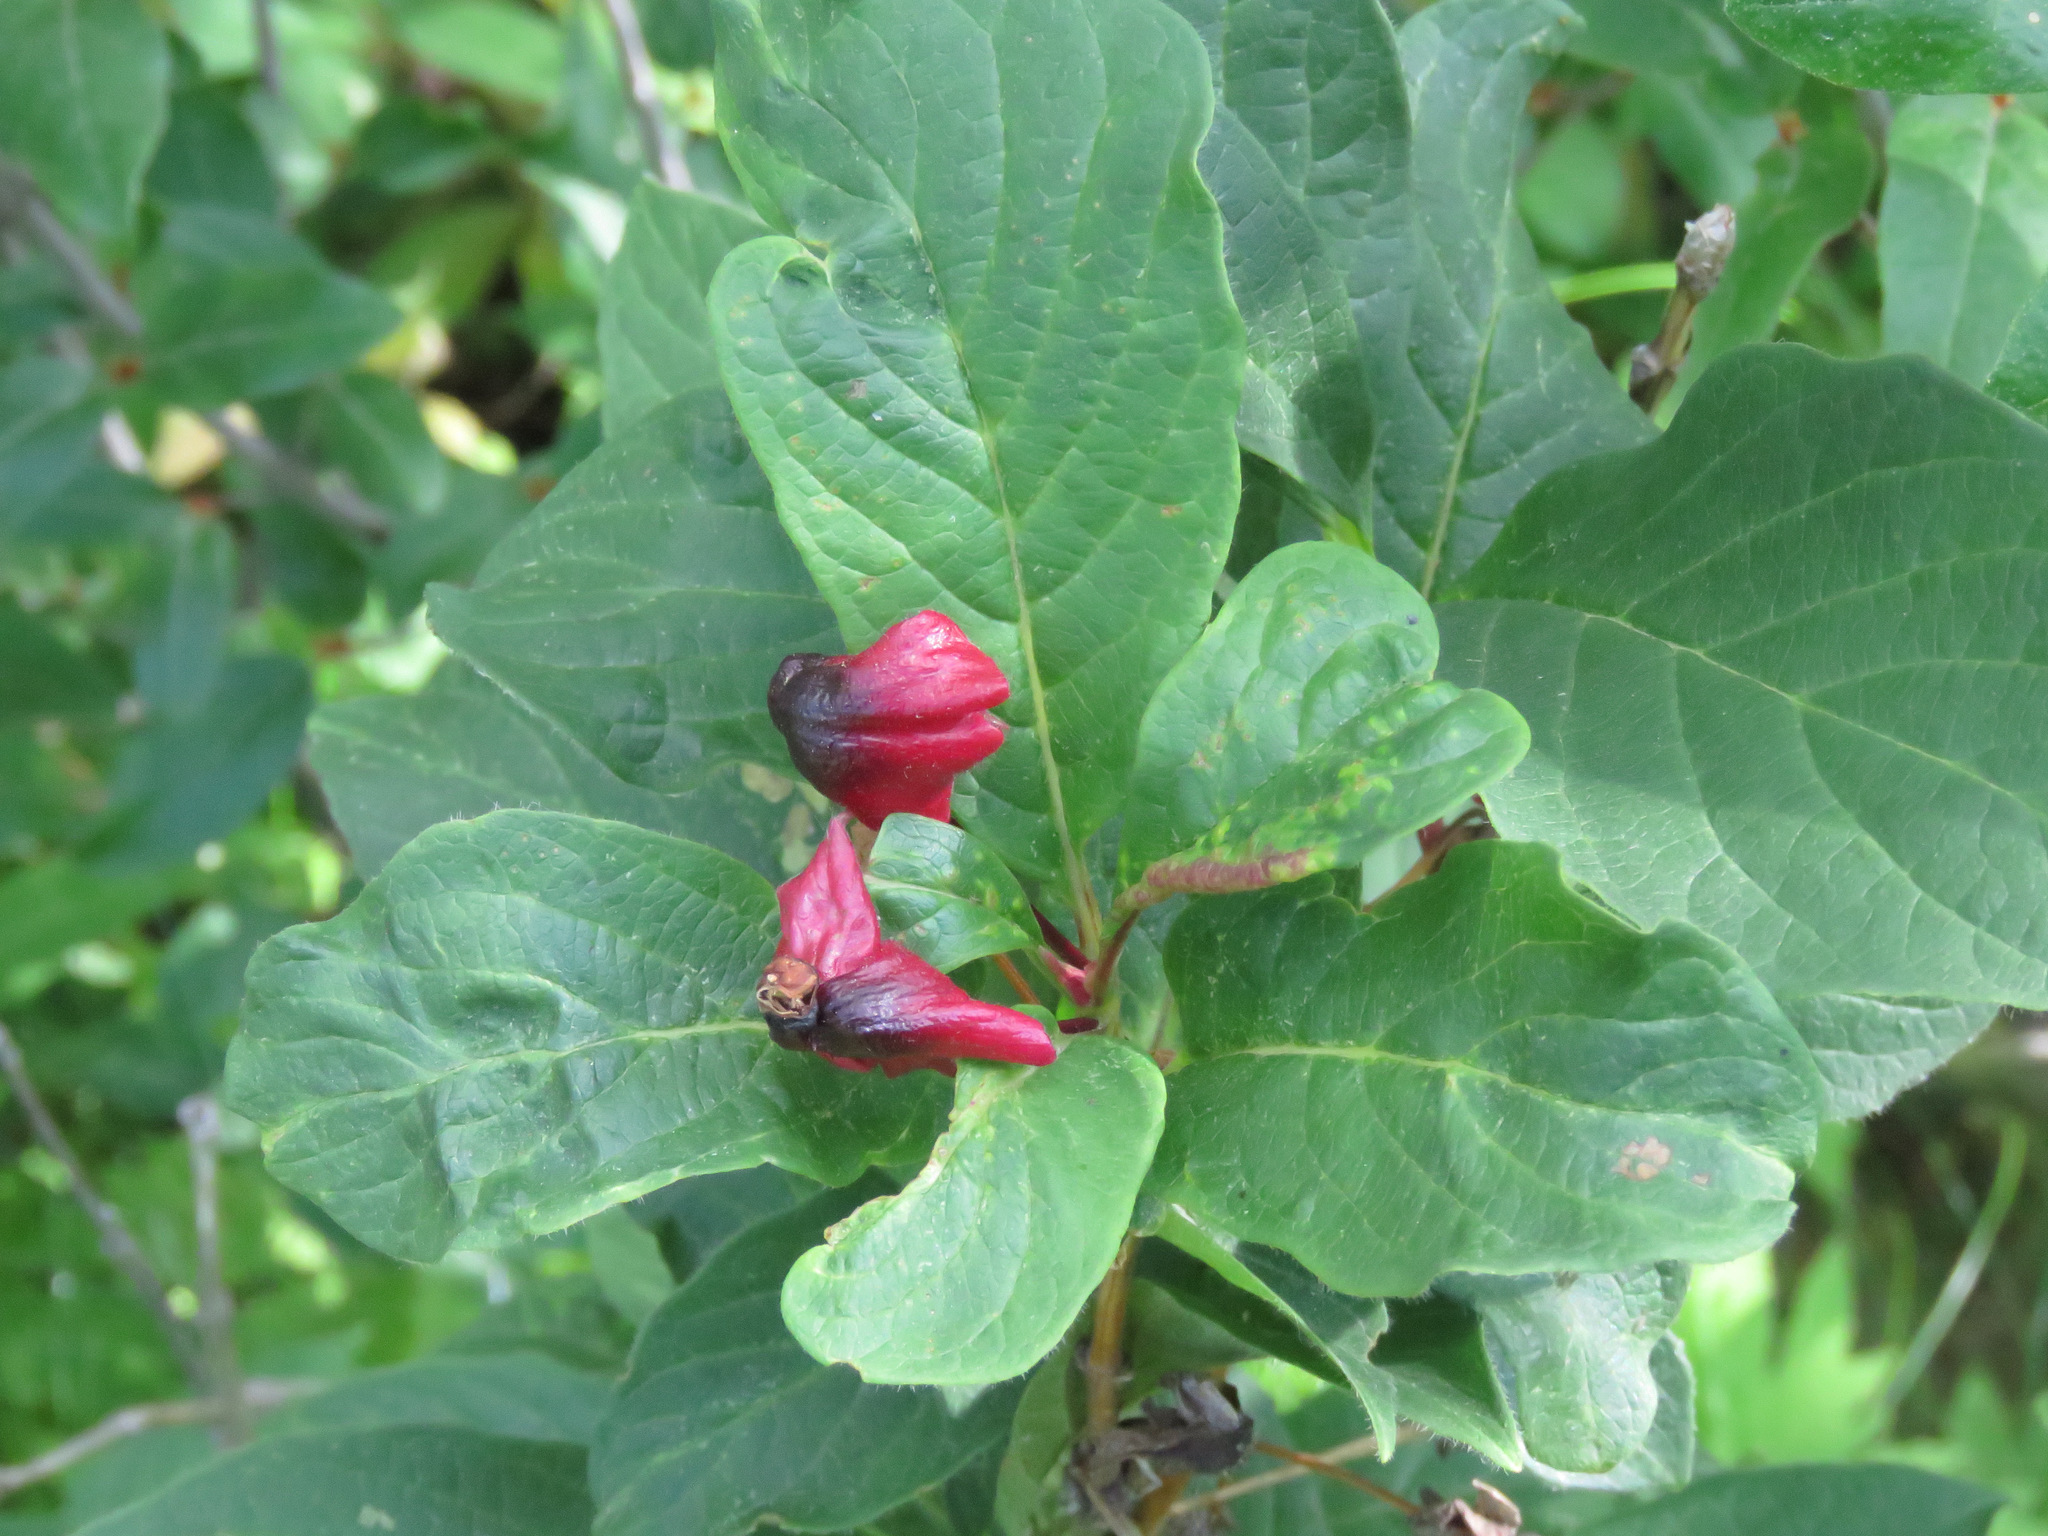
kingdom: Plantae
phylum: Tracheophyta
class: Magnoliopsida
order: Dipsacales
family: Caprifoliaceae
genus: Lonicera
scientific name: Lonicera involucrata
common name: Californian honeysuckle
